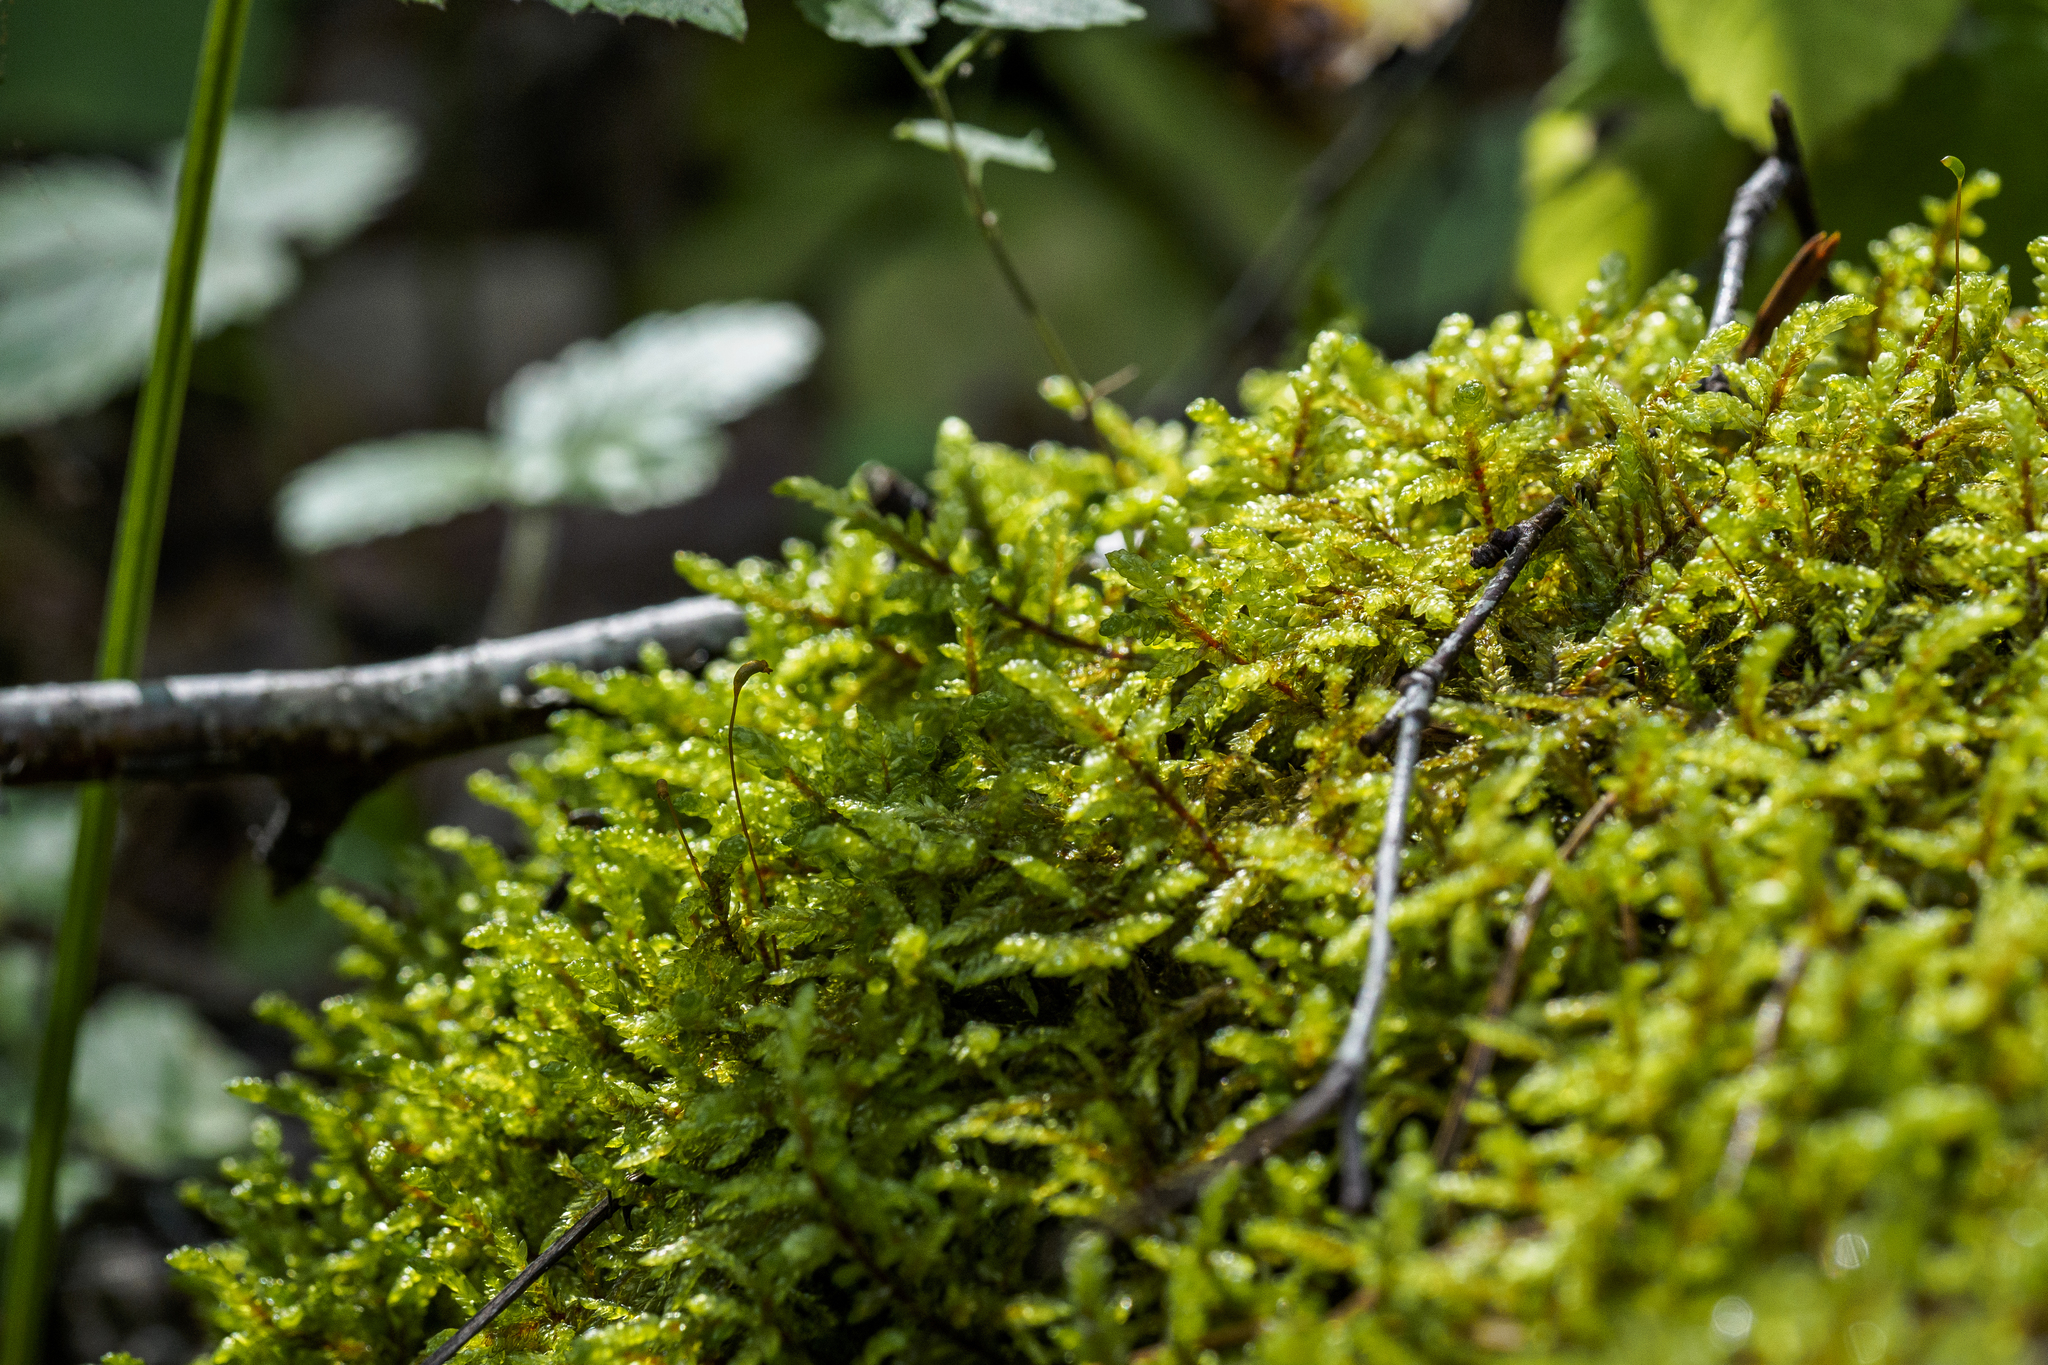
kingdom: Plantae
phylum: Bryophyta
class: Bryopsida
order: Hypnales
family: Hylocomiaceae
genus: Pleurozium
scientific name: Pleurozium schreberi
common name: Red-stemmed feather moss
